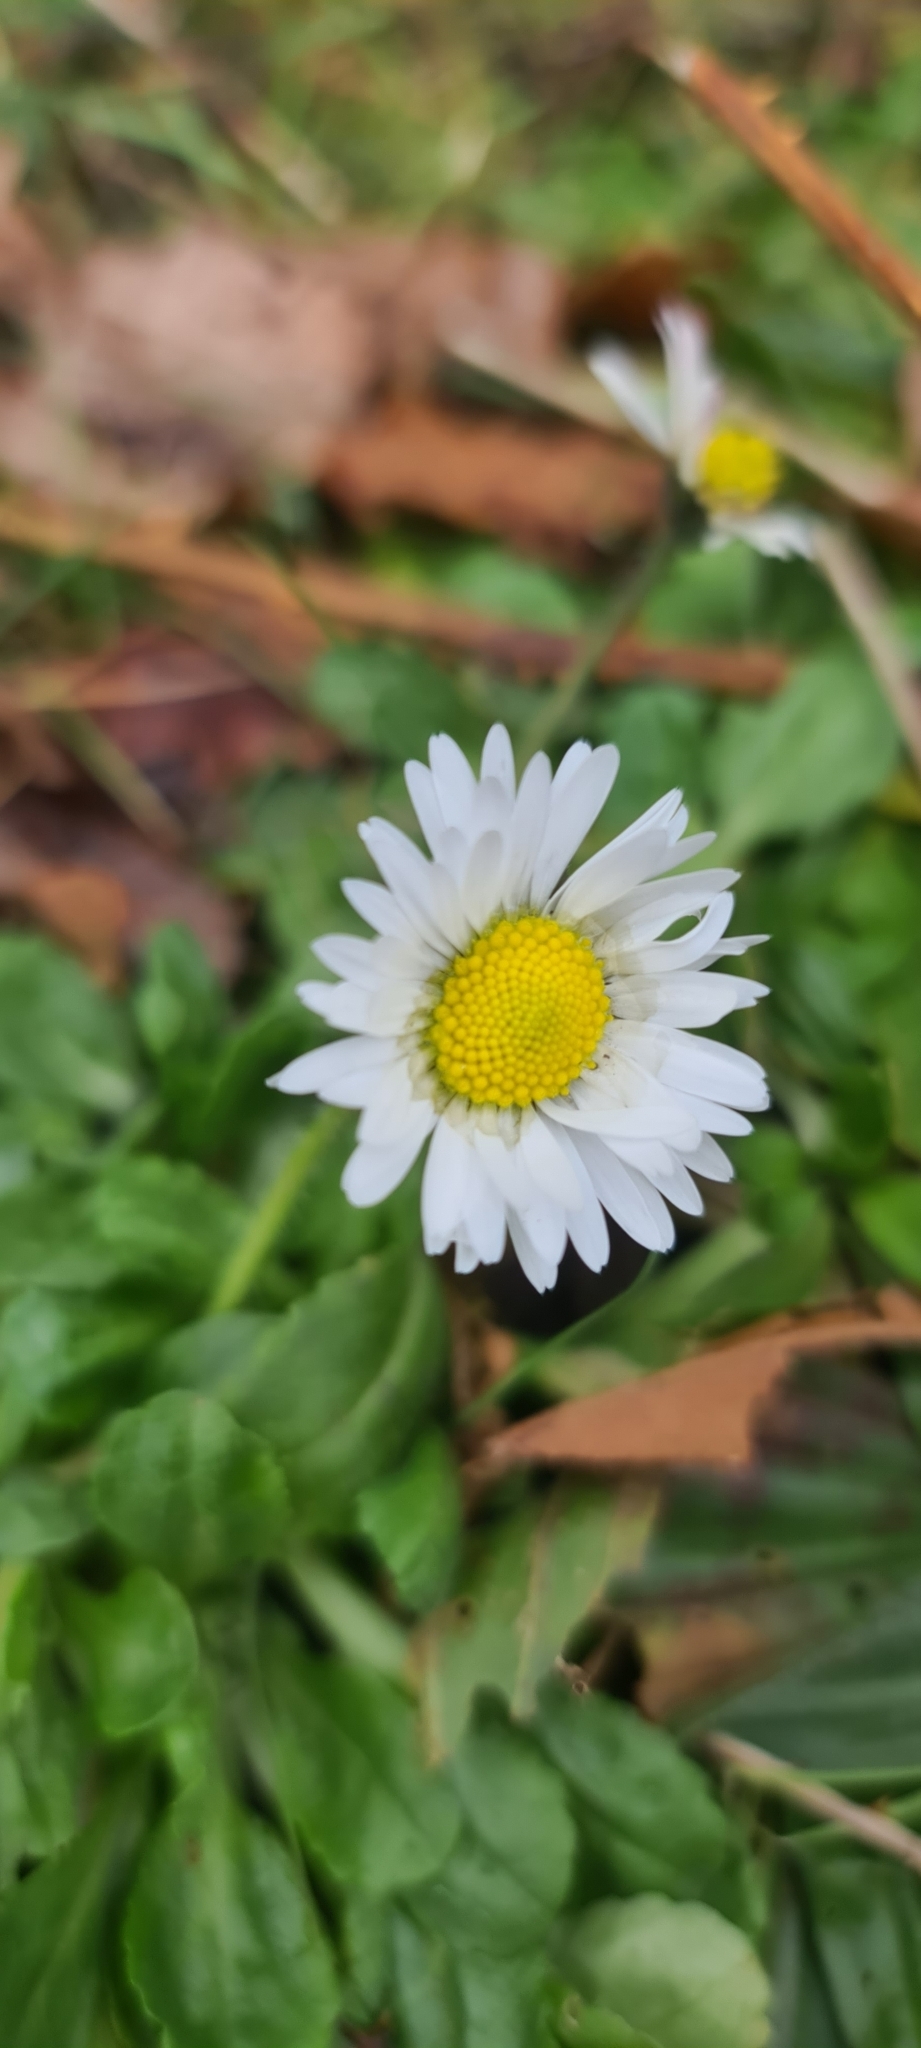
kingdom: Plantae
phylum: Tracheophyta
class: Magnoliopsida
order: Asterales
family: Asteraceae
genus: Bellis
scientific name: Bellis perennis
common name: Lawndaisy
